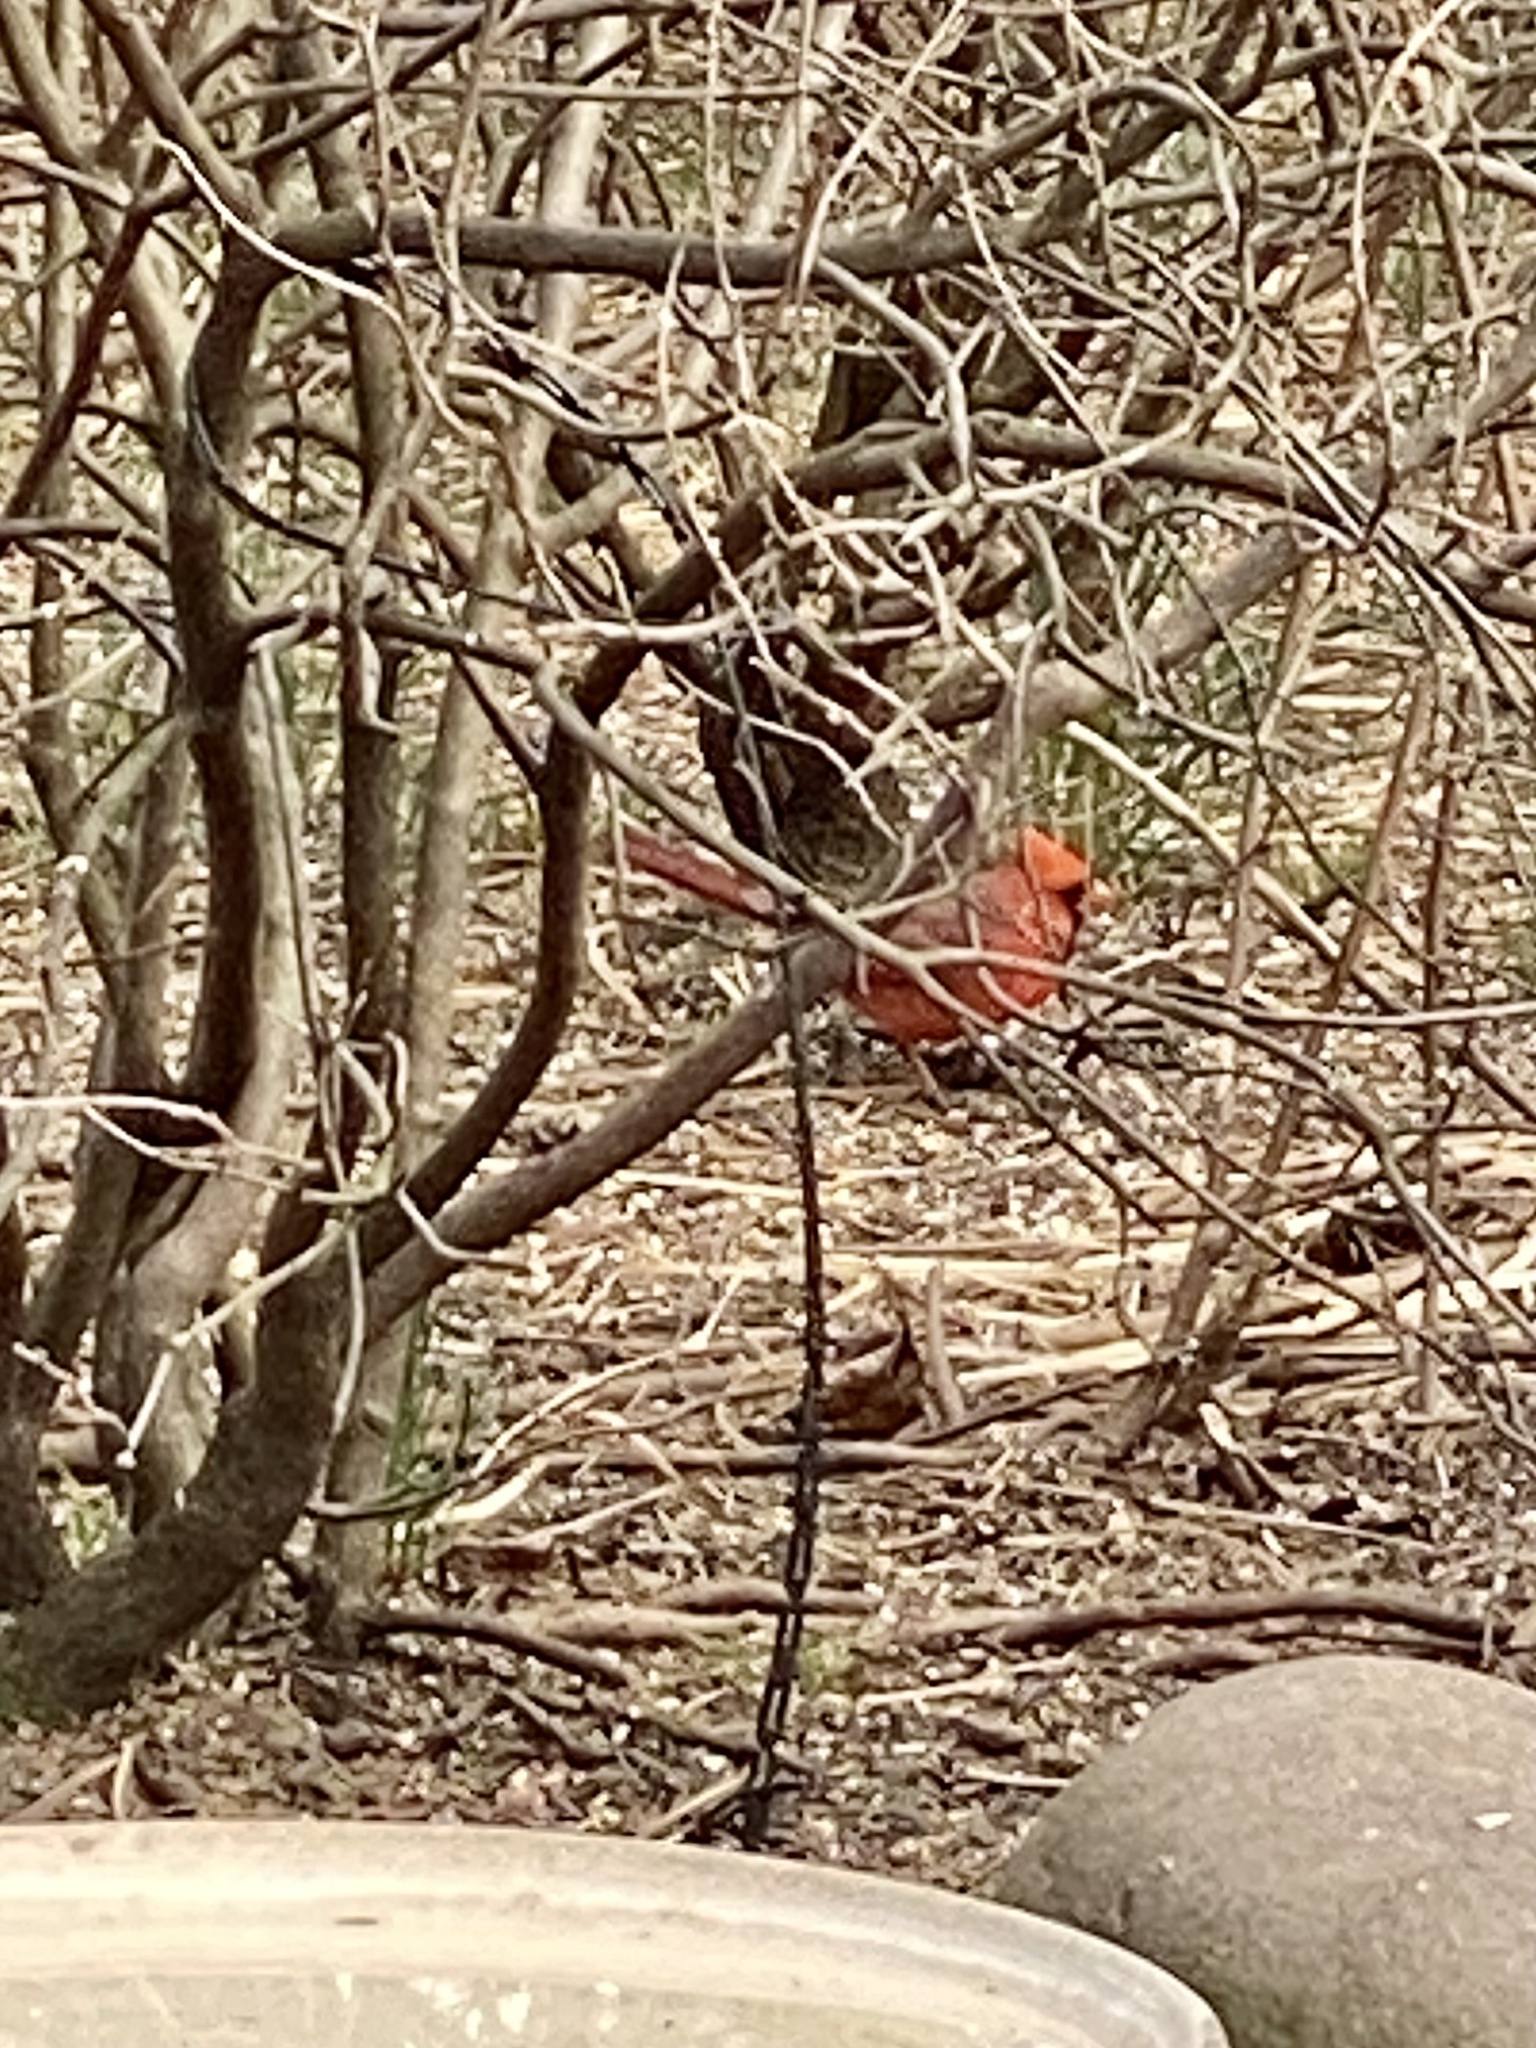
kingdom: Animalia
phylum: Chordata
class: Aves
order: Passeriformes
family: Cardinalidae
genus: Cardinalis
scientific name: Cardinalis cardinalis
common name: Northern cardinal
